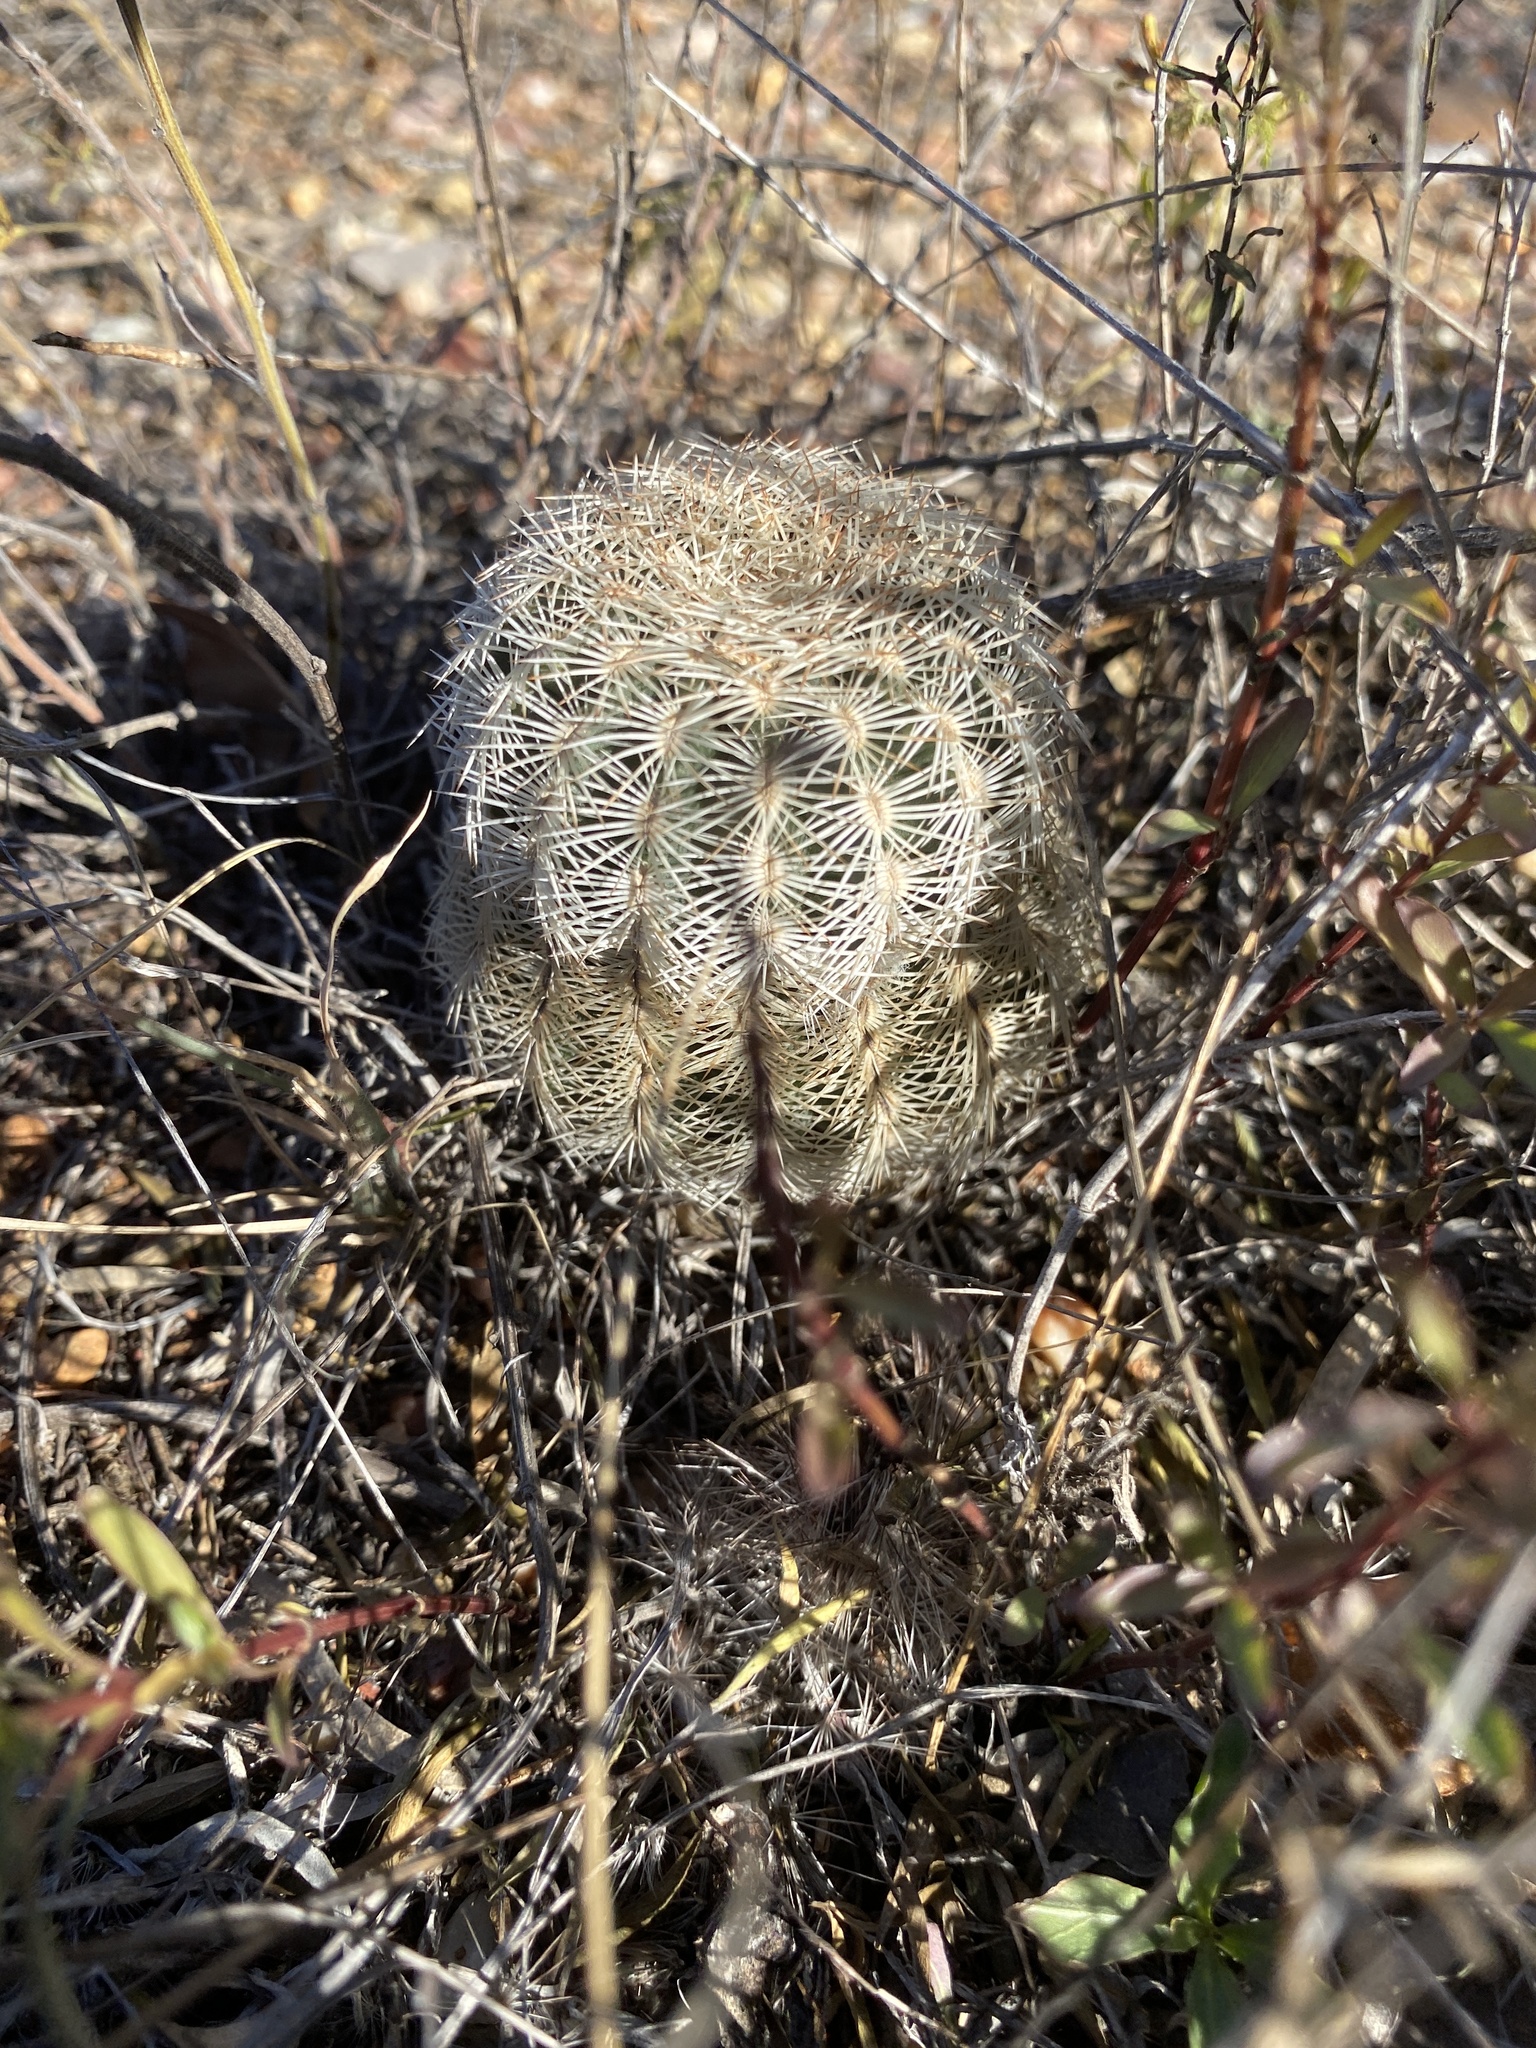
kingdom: Plantae
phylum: Tracheophyta
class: Magnoliopsida
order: Caryophyllales
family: Cactaceae
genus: Echinocereus
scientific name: Echinocereus reichenbachii
